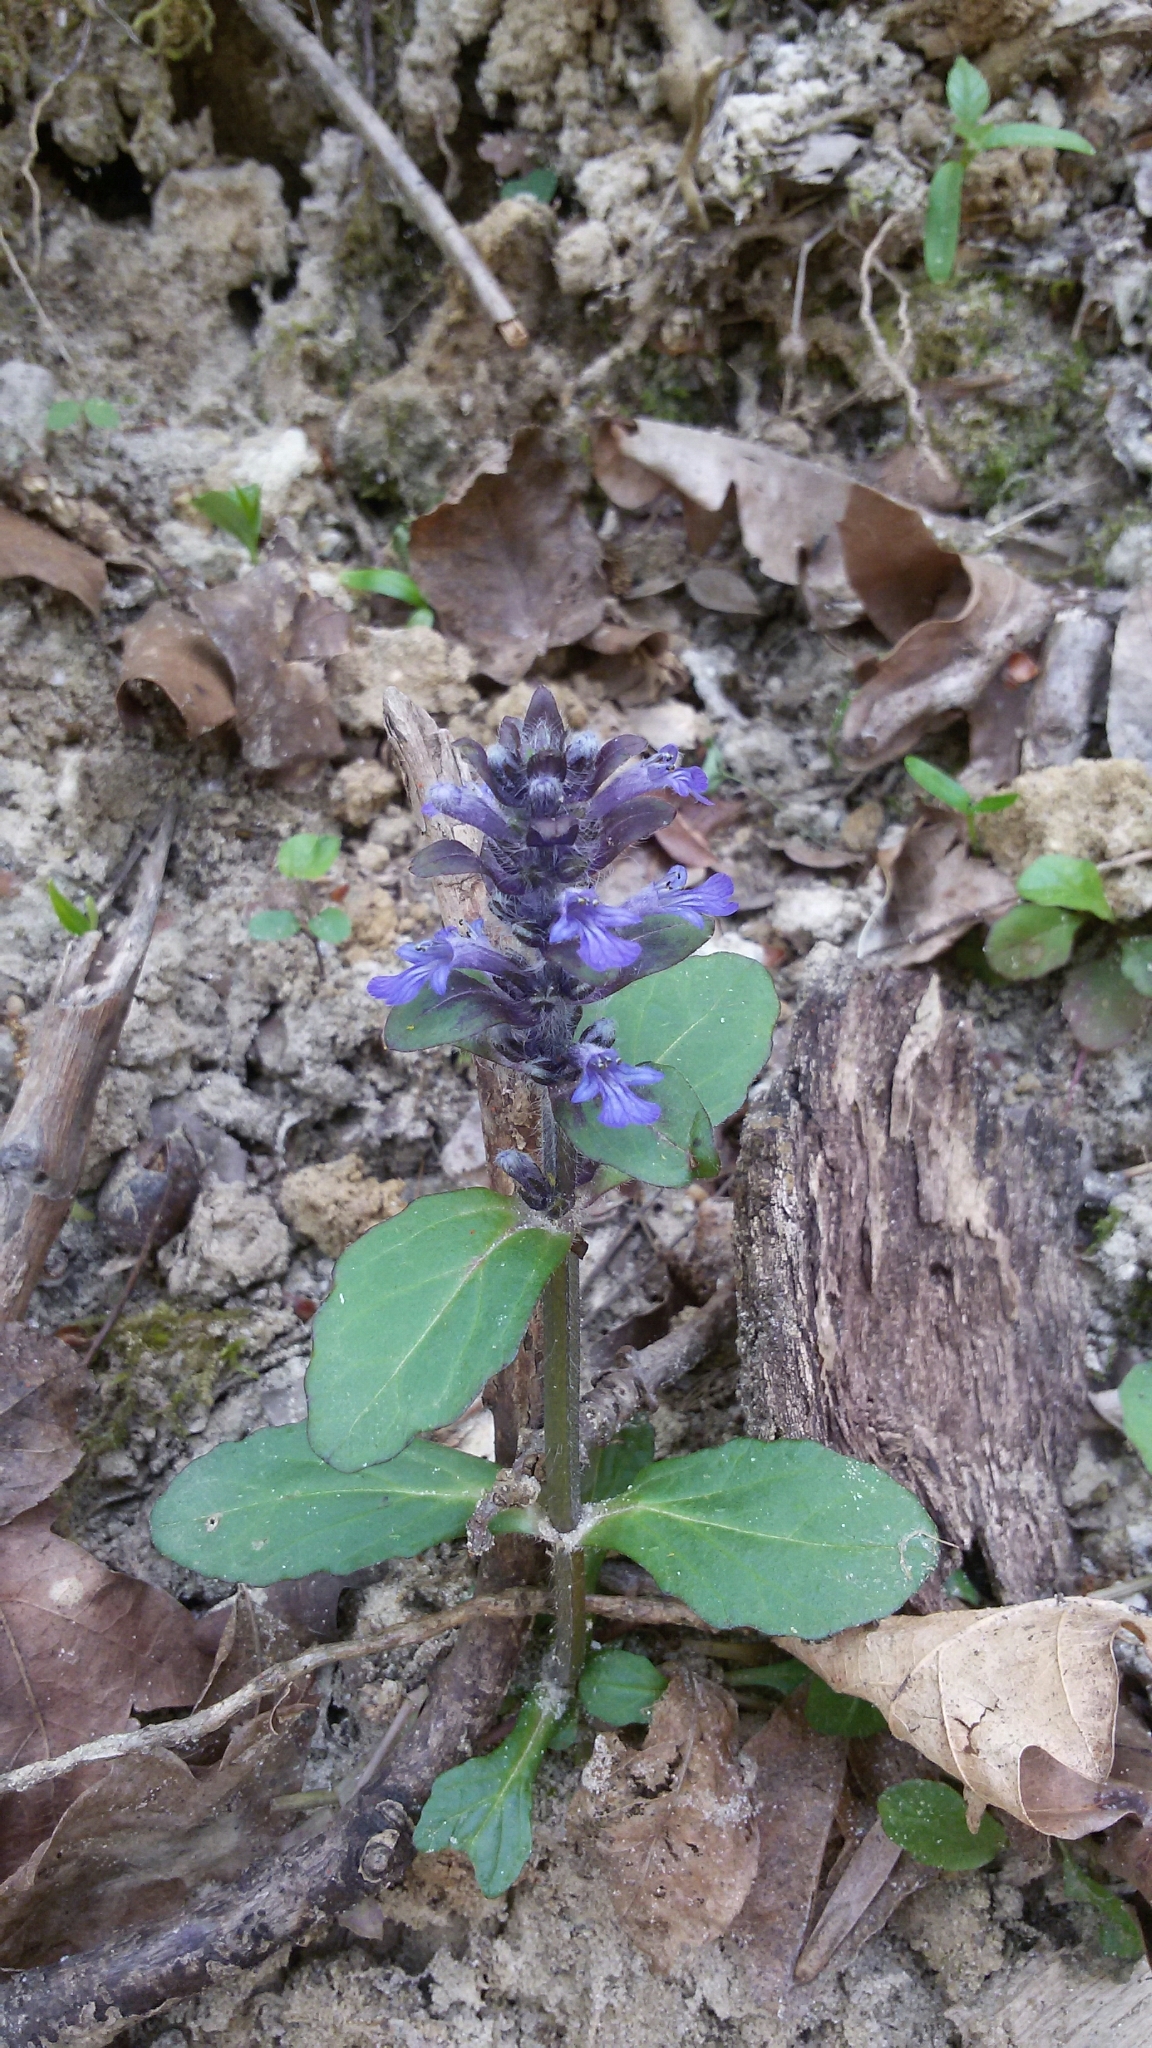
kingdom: Plantae
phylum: Tracheophyta
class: Magnoliopsida
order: Lamiales
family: Lamiaceae
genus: Ajuga
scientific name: Ajuga reptans
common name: Bugle
